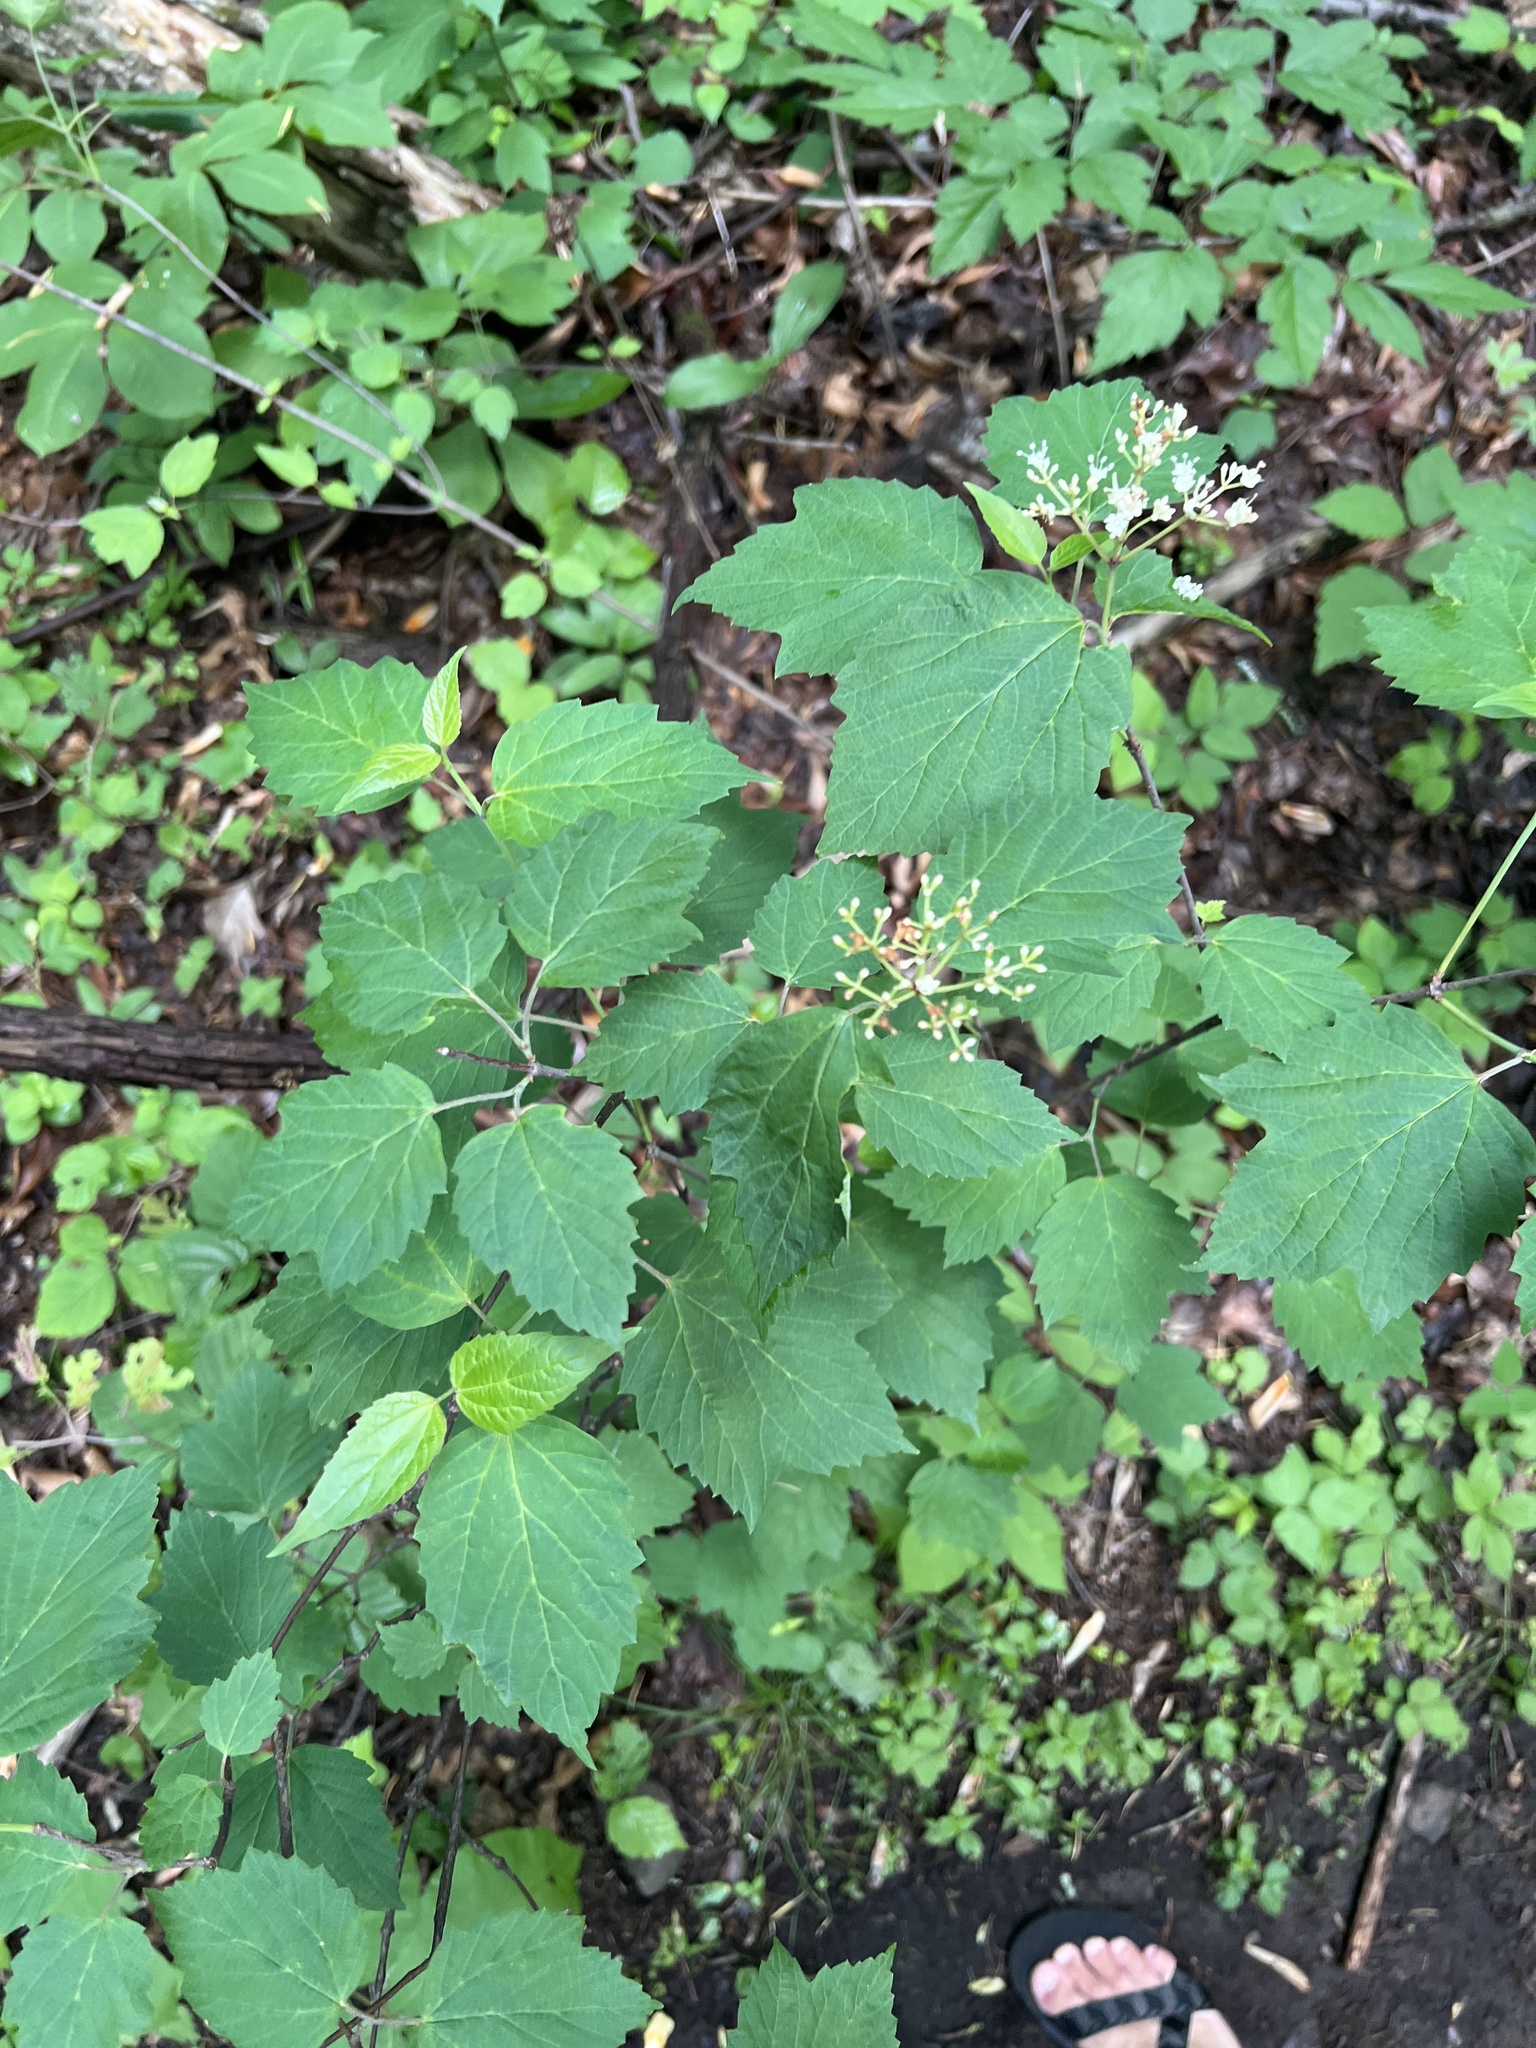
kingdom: Plantae
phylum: Tracheophyta
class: Magnoliopsida
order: Dipsacales
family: Viburnaceae
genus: Viburnum
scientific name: Viburnum acerifolium
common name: Dockmackie
